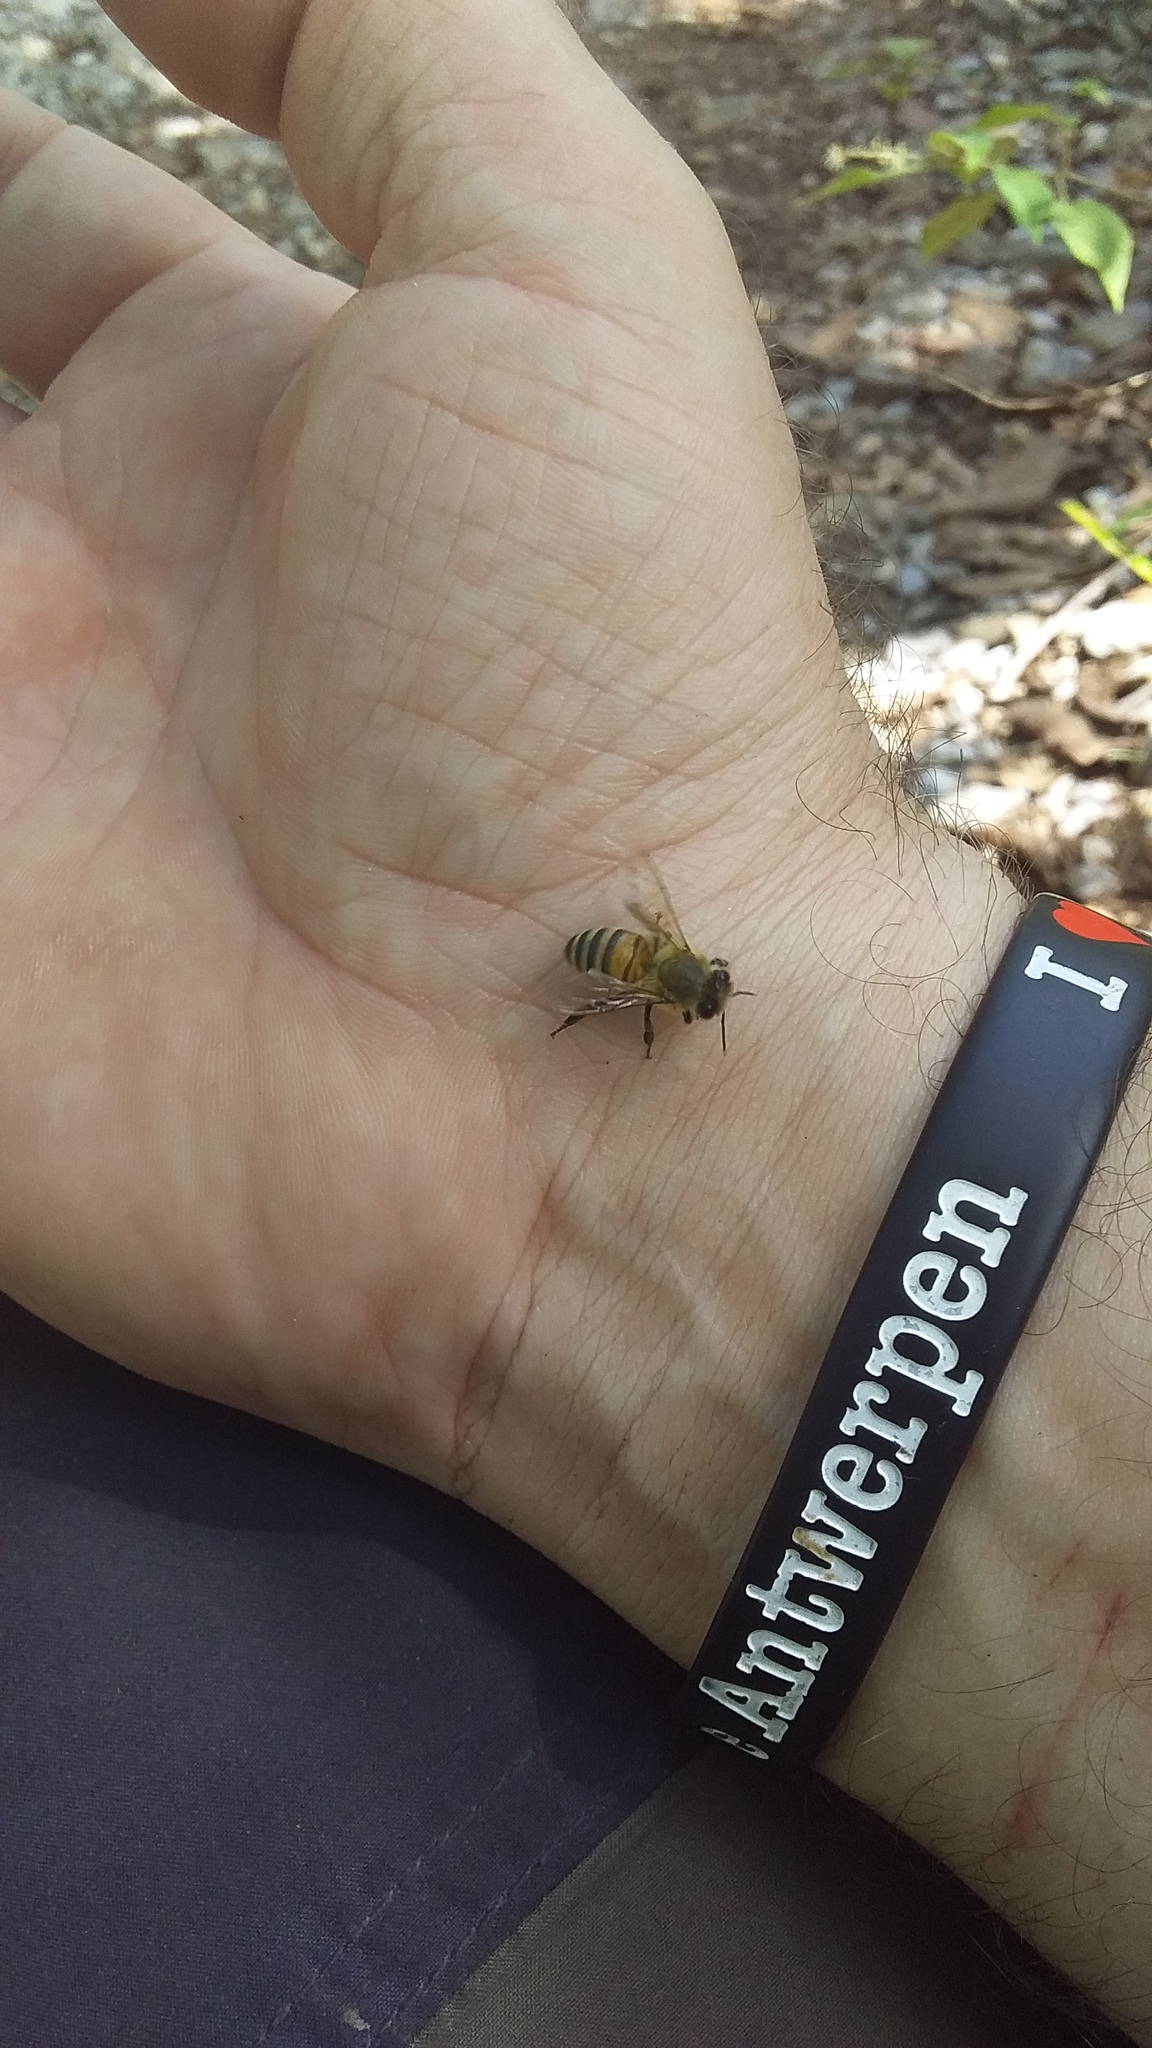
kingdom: Animalia
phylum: Arthropoda
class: Insecta
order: Hymenoptera
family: Apidae
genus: Apis
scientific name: Apis mellifera
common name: Honey bee
